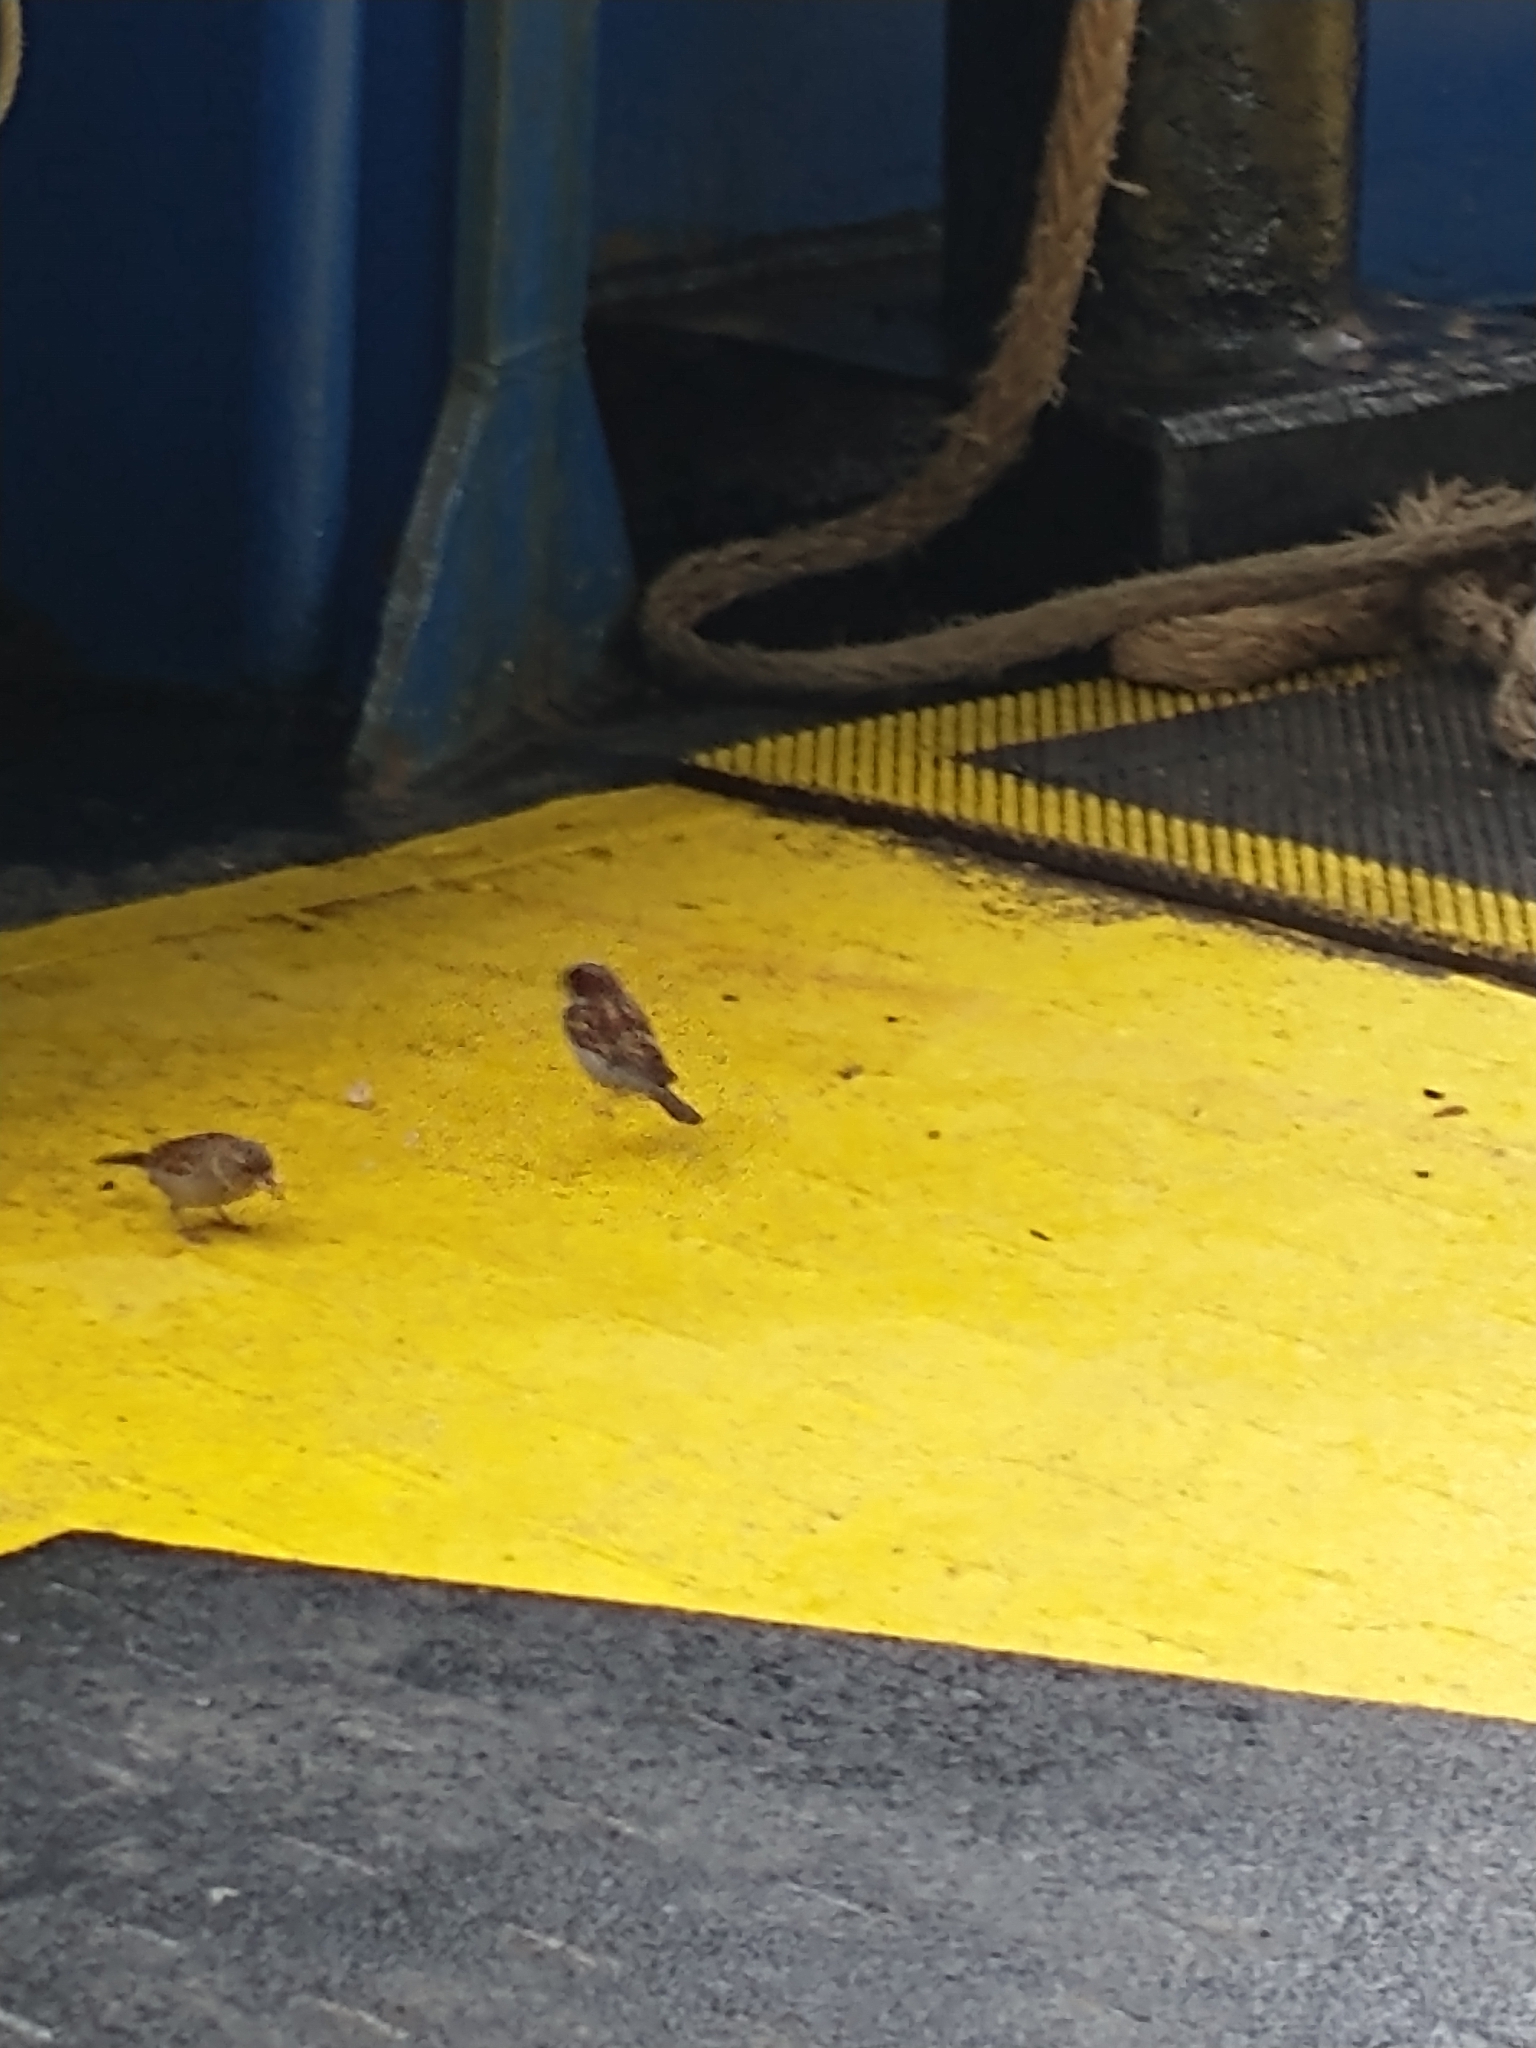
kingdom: Animalia
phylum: Chordata
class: Aves
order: Passeriformes
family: Passeridae
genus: Passer
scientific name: Passer domesticus
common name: House sparrow
